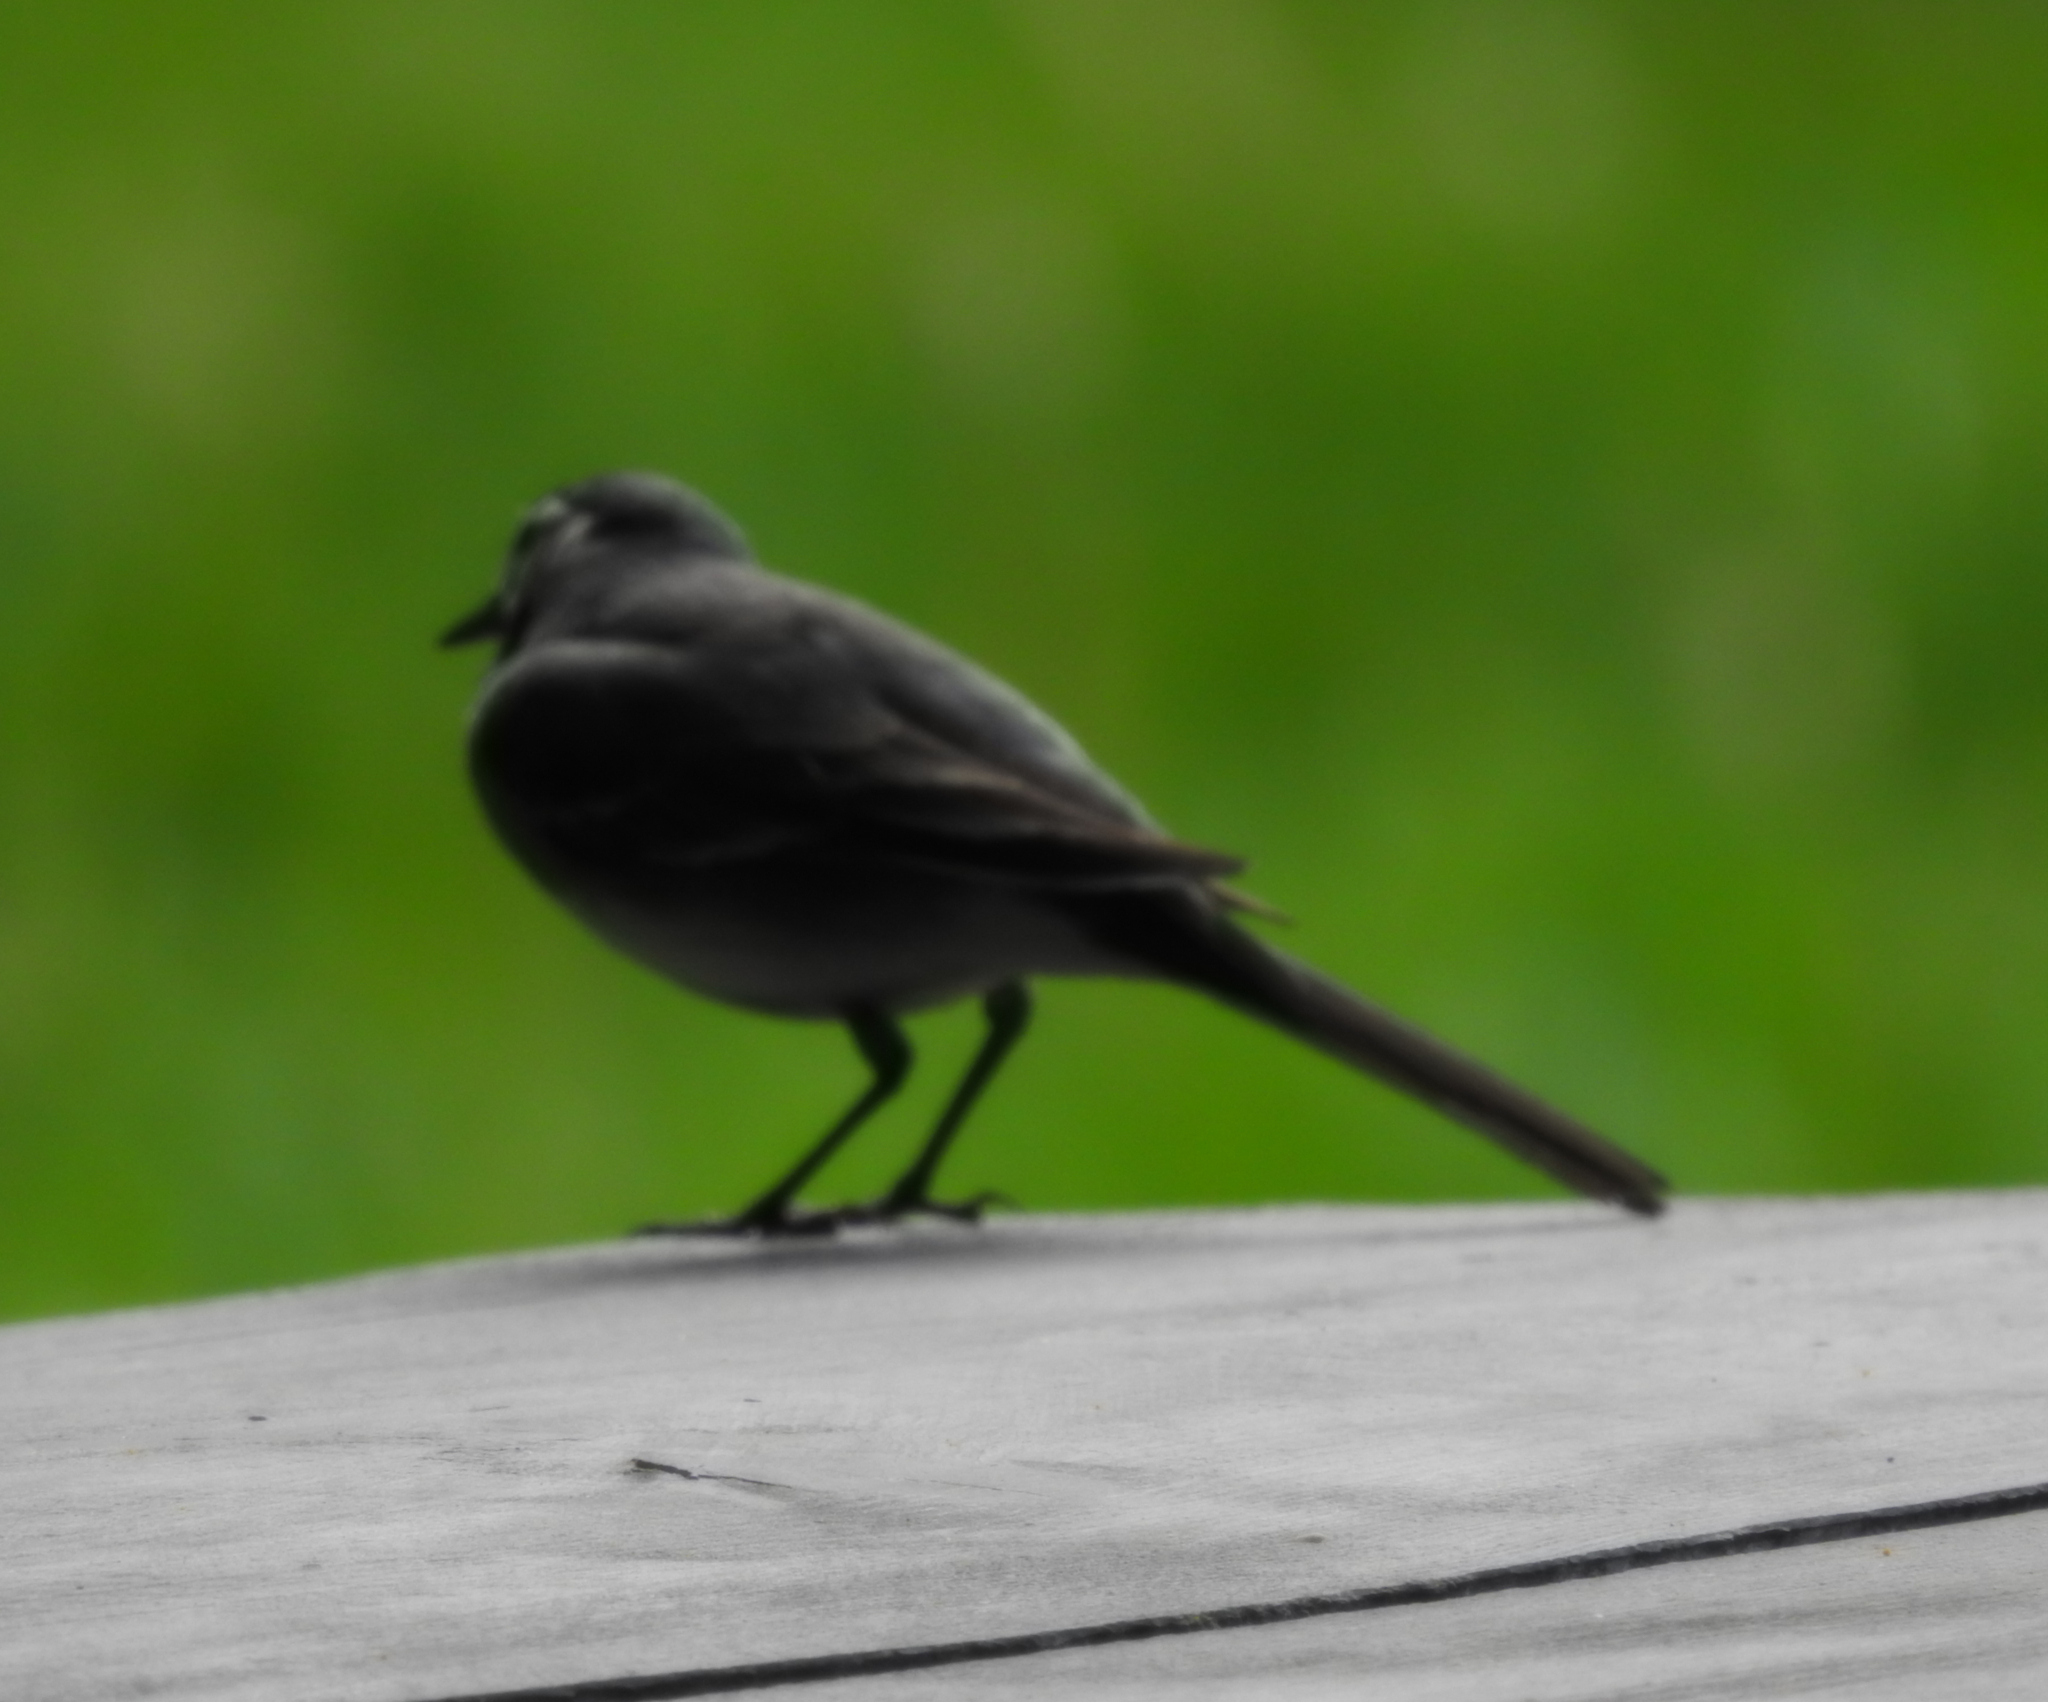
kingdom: Animalia
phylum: Chordata
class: Aves
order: Passeriformes
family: Motacillidae
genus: Motacilla
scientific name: Motacilla alba
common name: White wagtail
